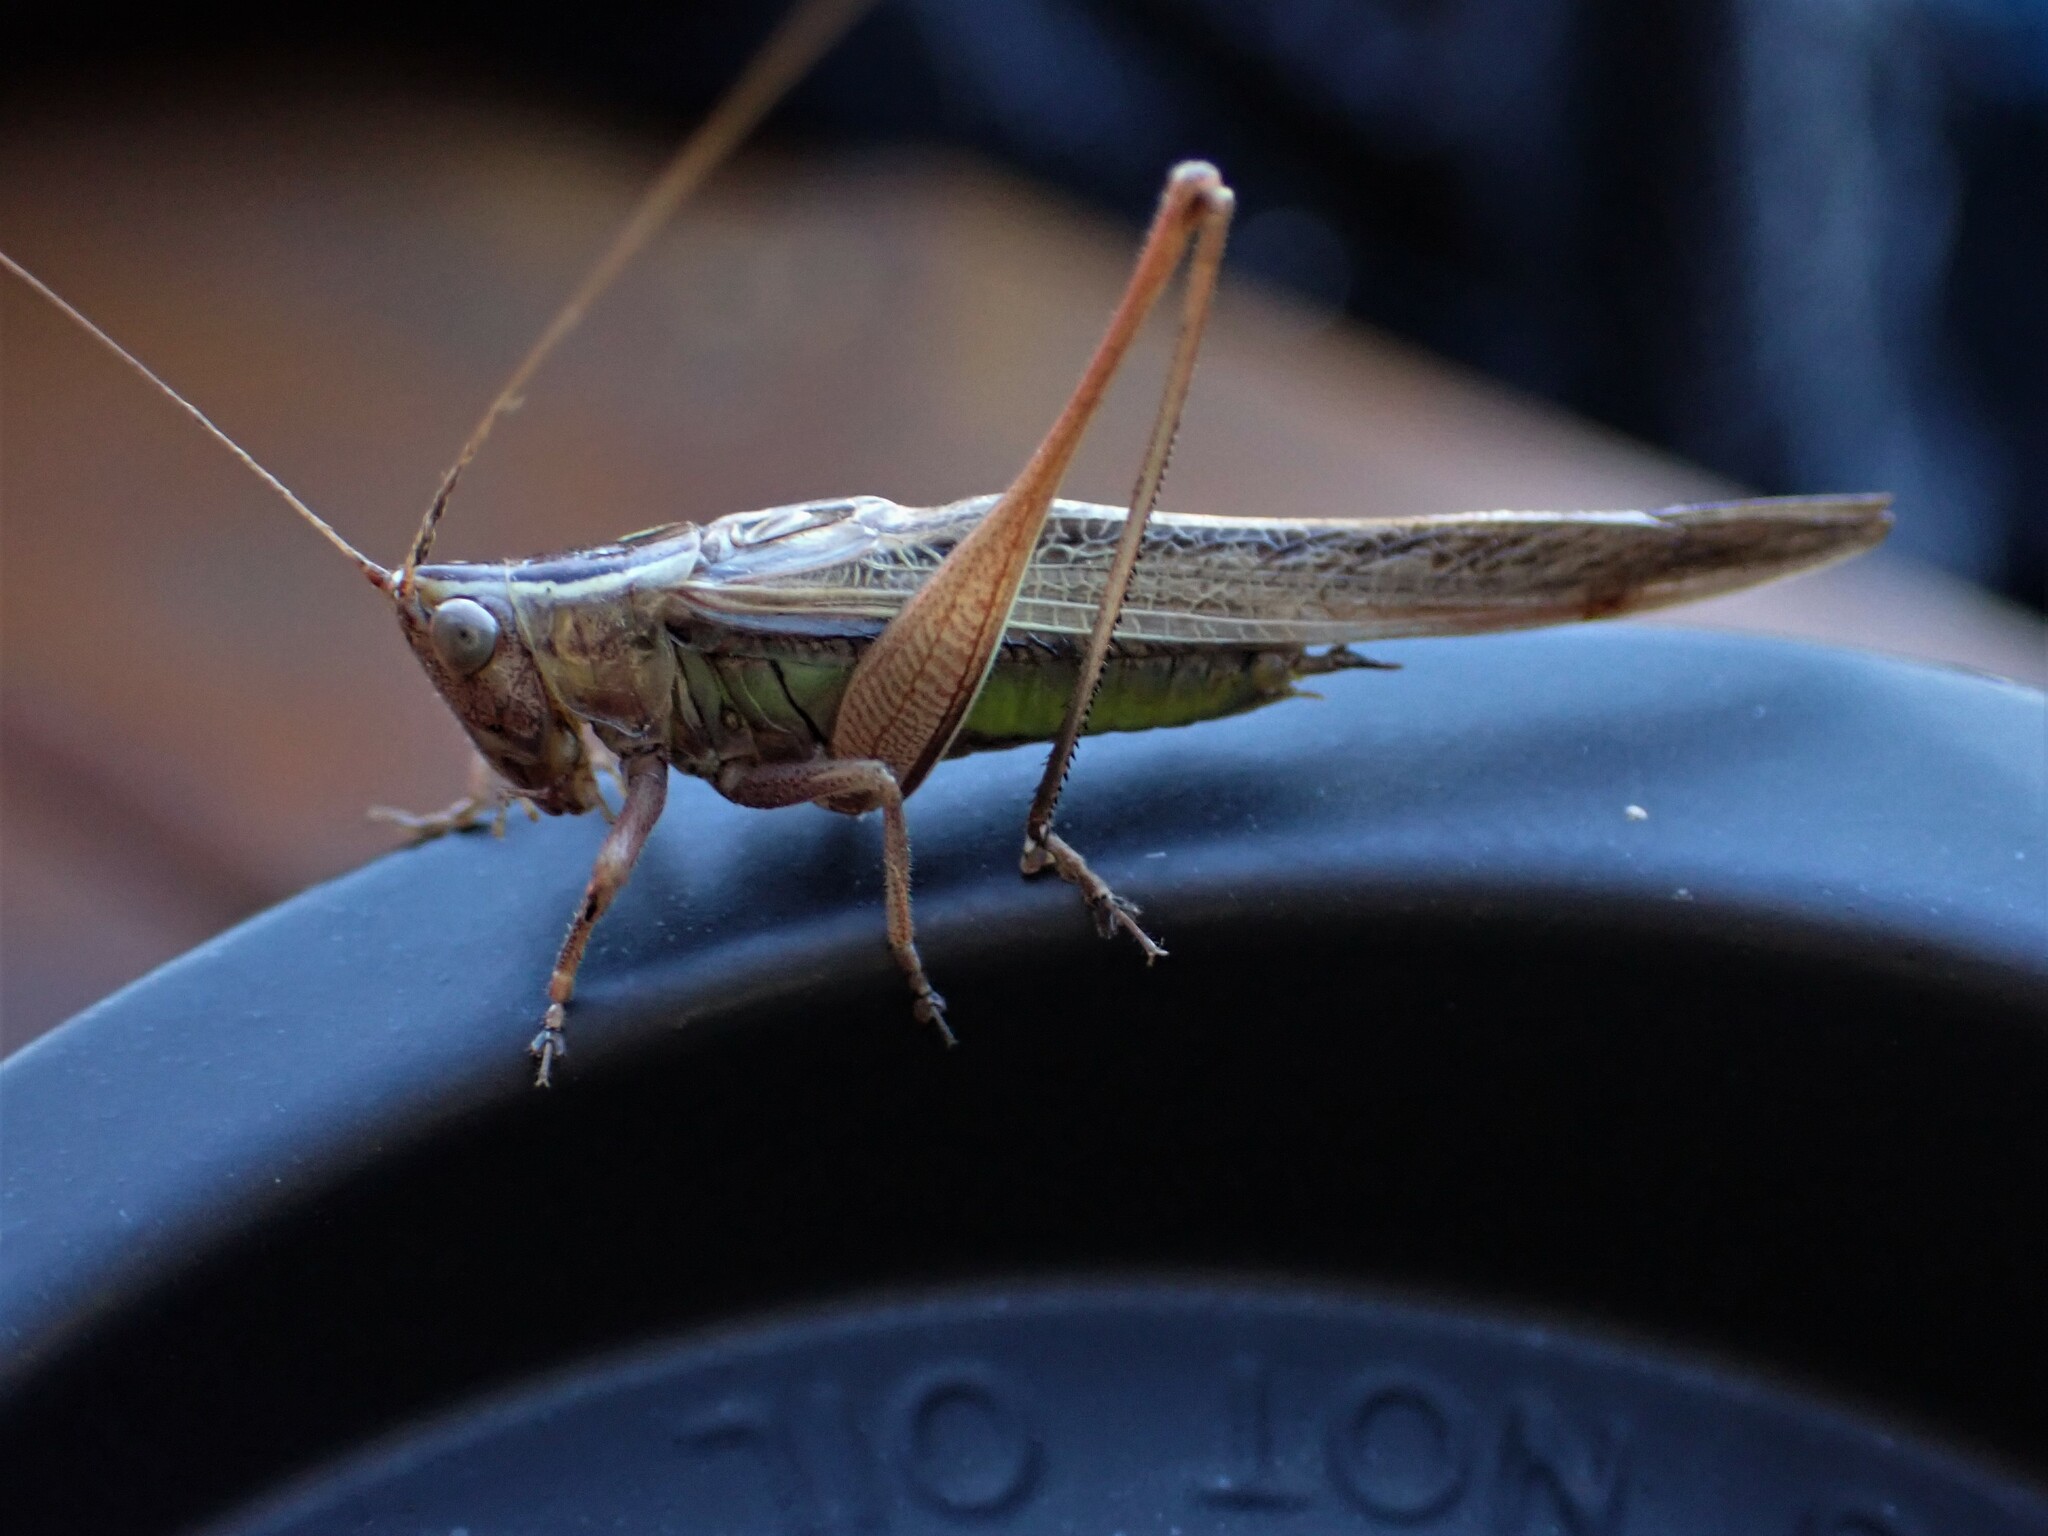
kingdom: Animalia
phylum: Arthropoda
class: Insecta
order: Orthoptera
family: Tettigoniidae
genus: Conocephalus
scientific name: Conocephalus albescens
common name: Whitish meadow katydid
